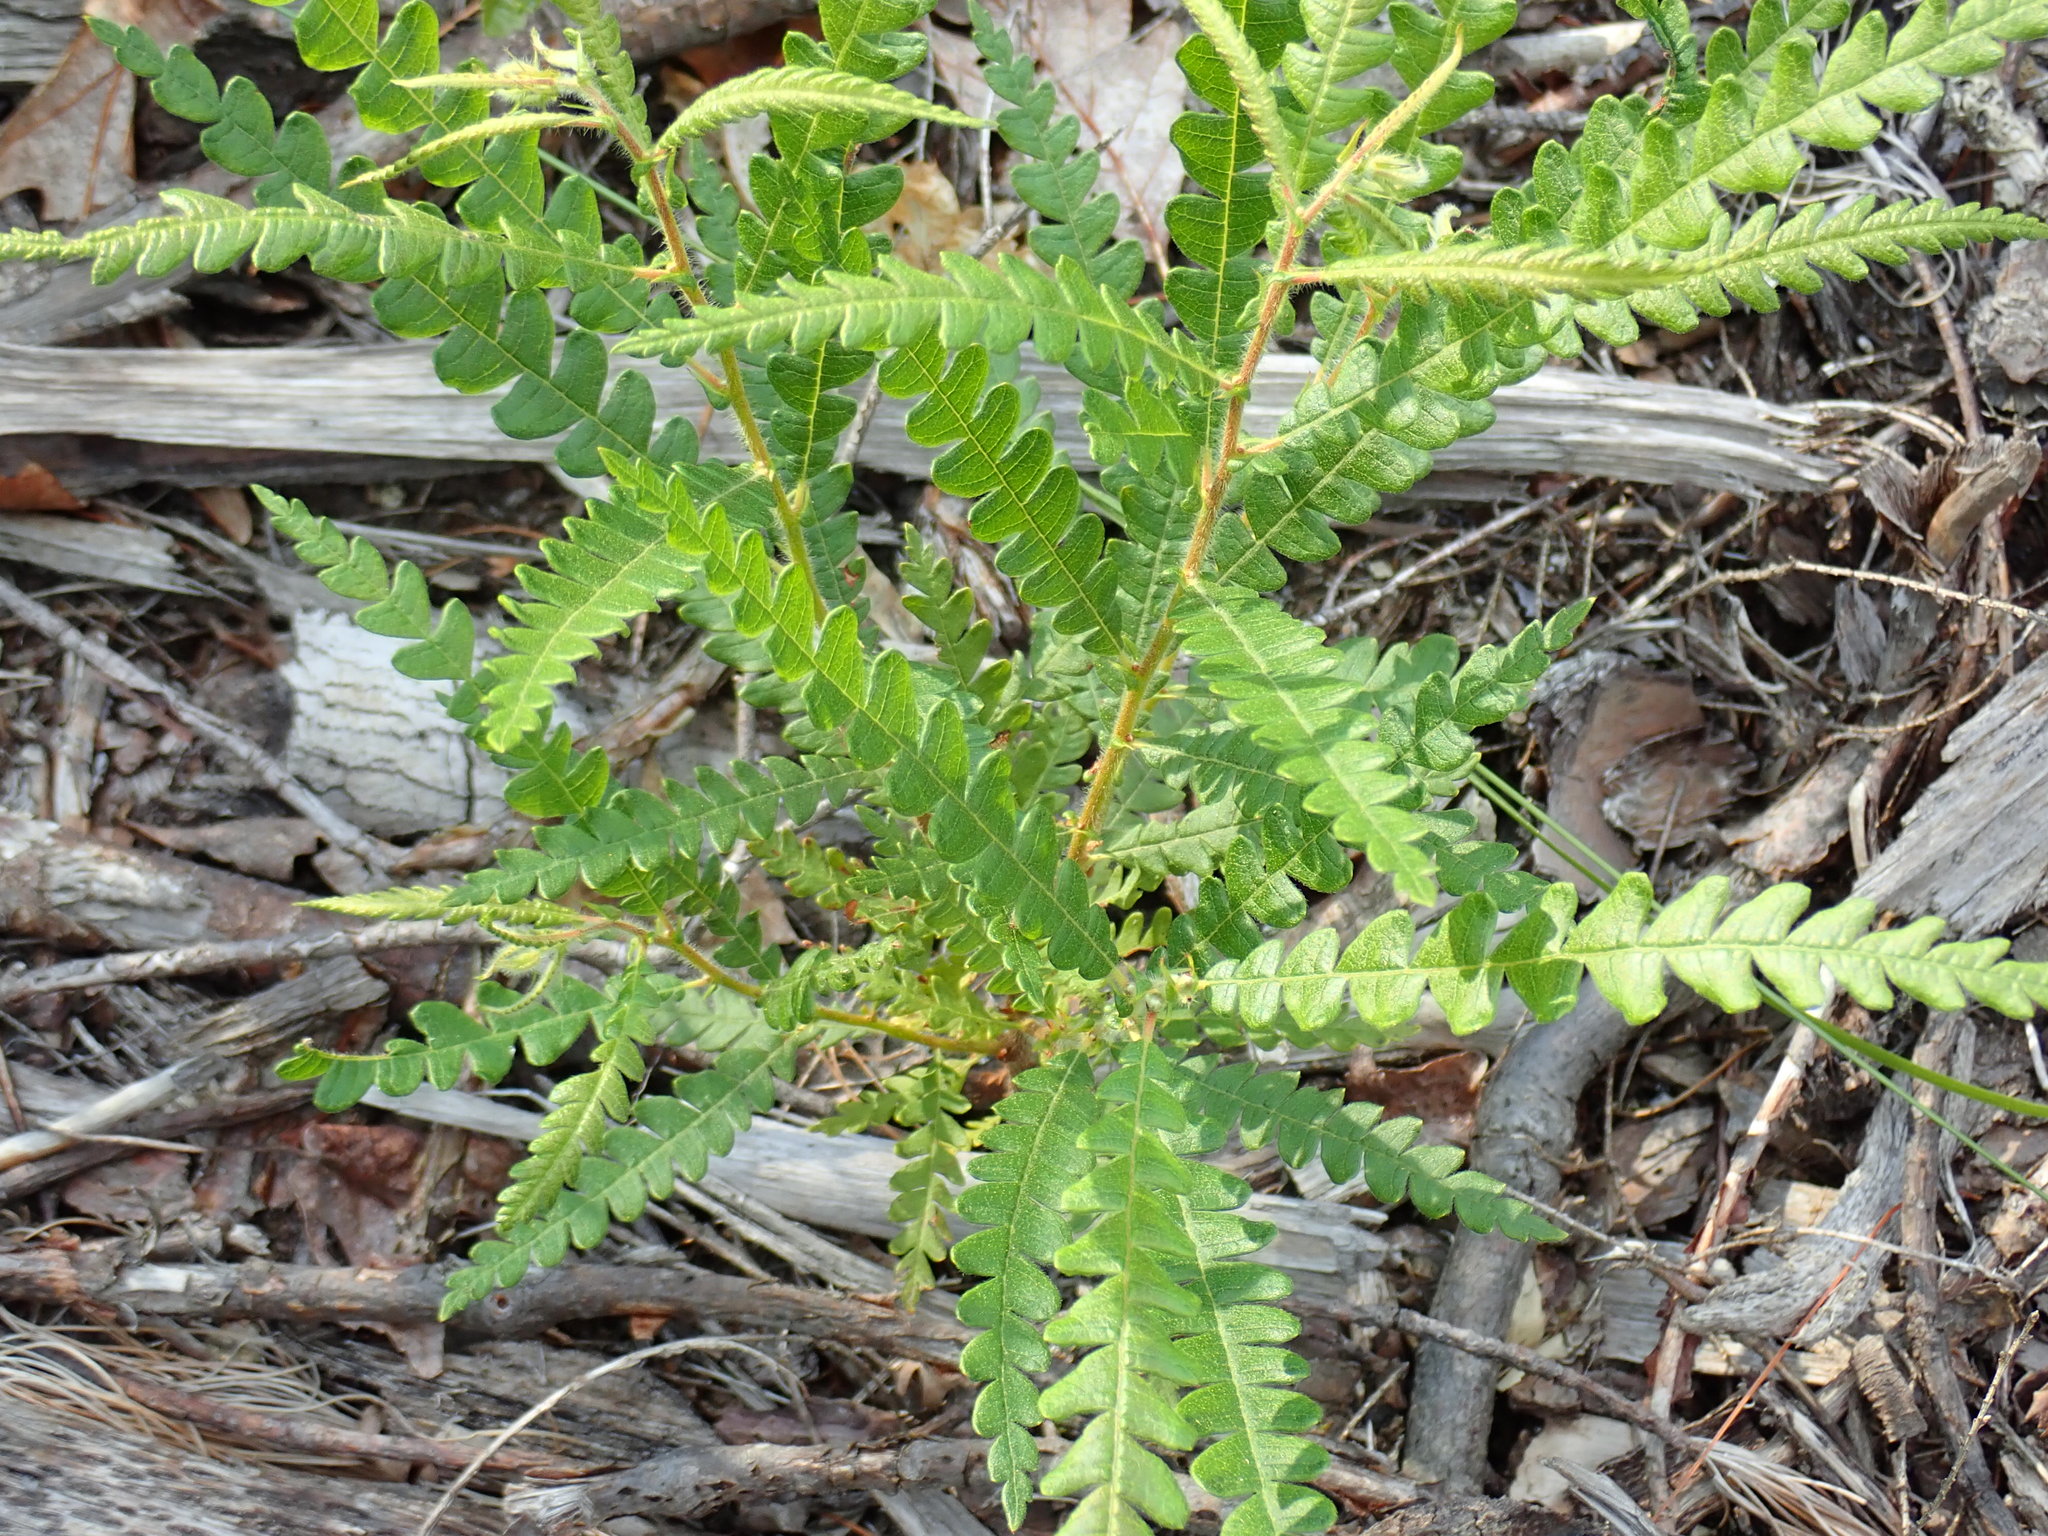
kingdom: Plantae
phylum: Tracheophyta
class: Magnoliopsida
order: Fagales
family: Myricaceae
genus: Comptonia
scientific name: Comptonia peregrina
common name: Sweet-fern
